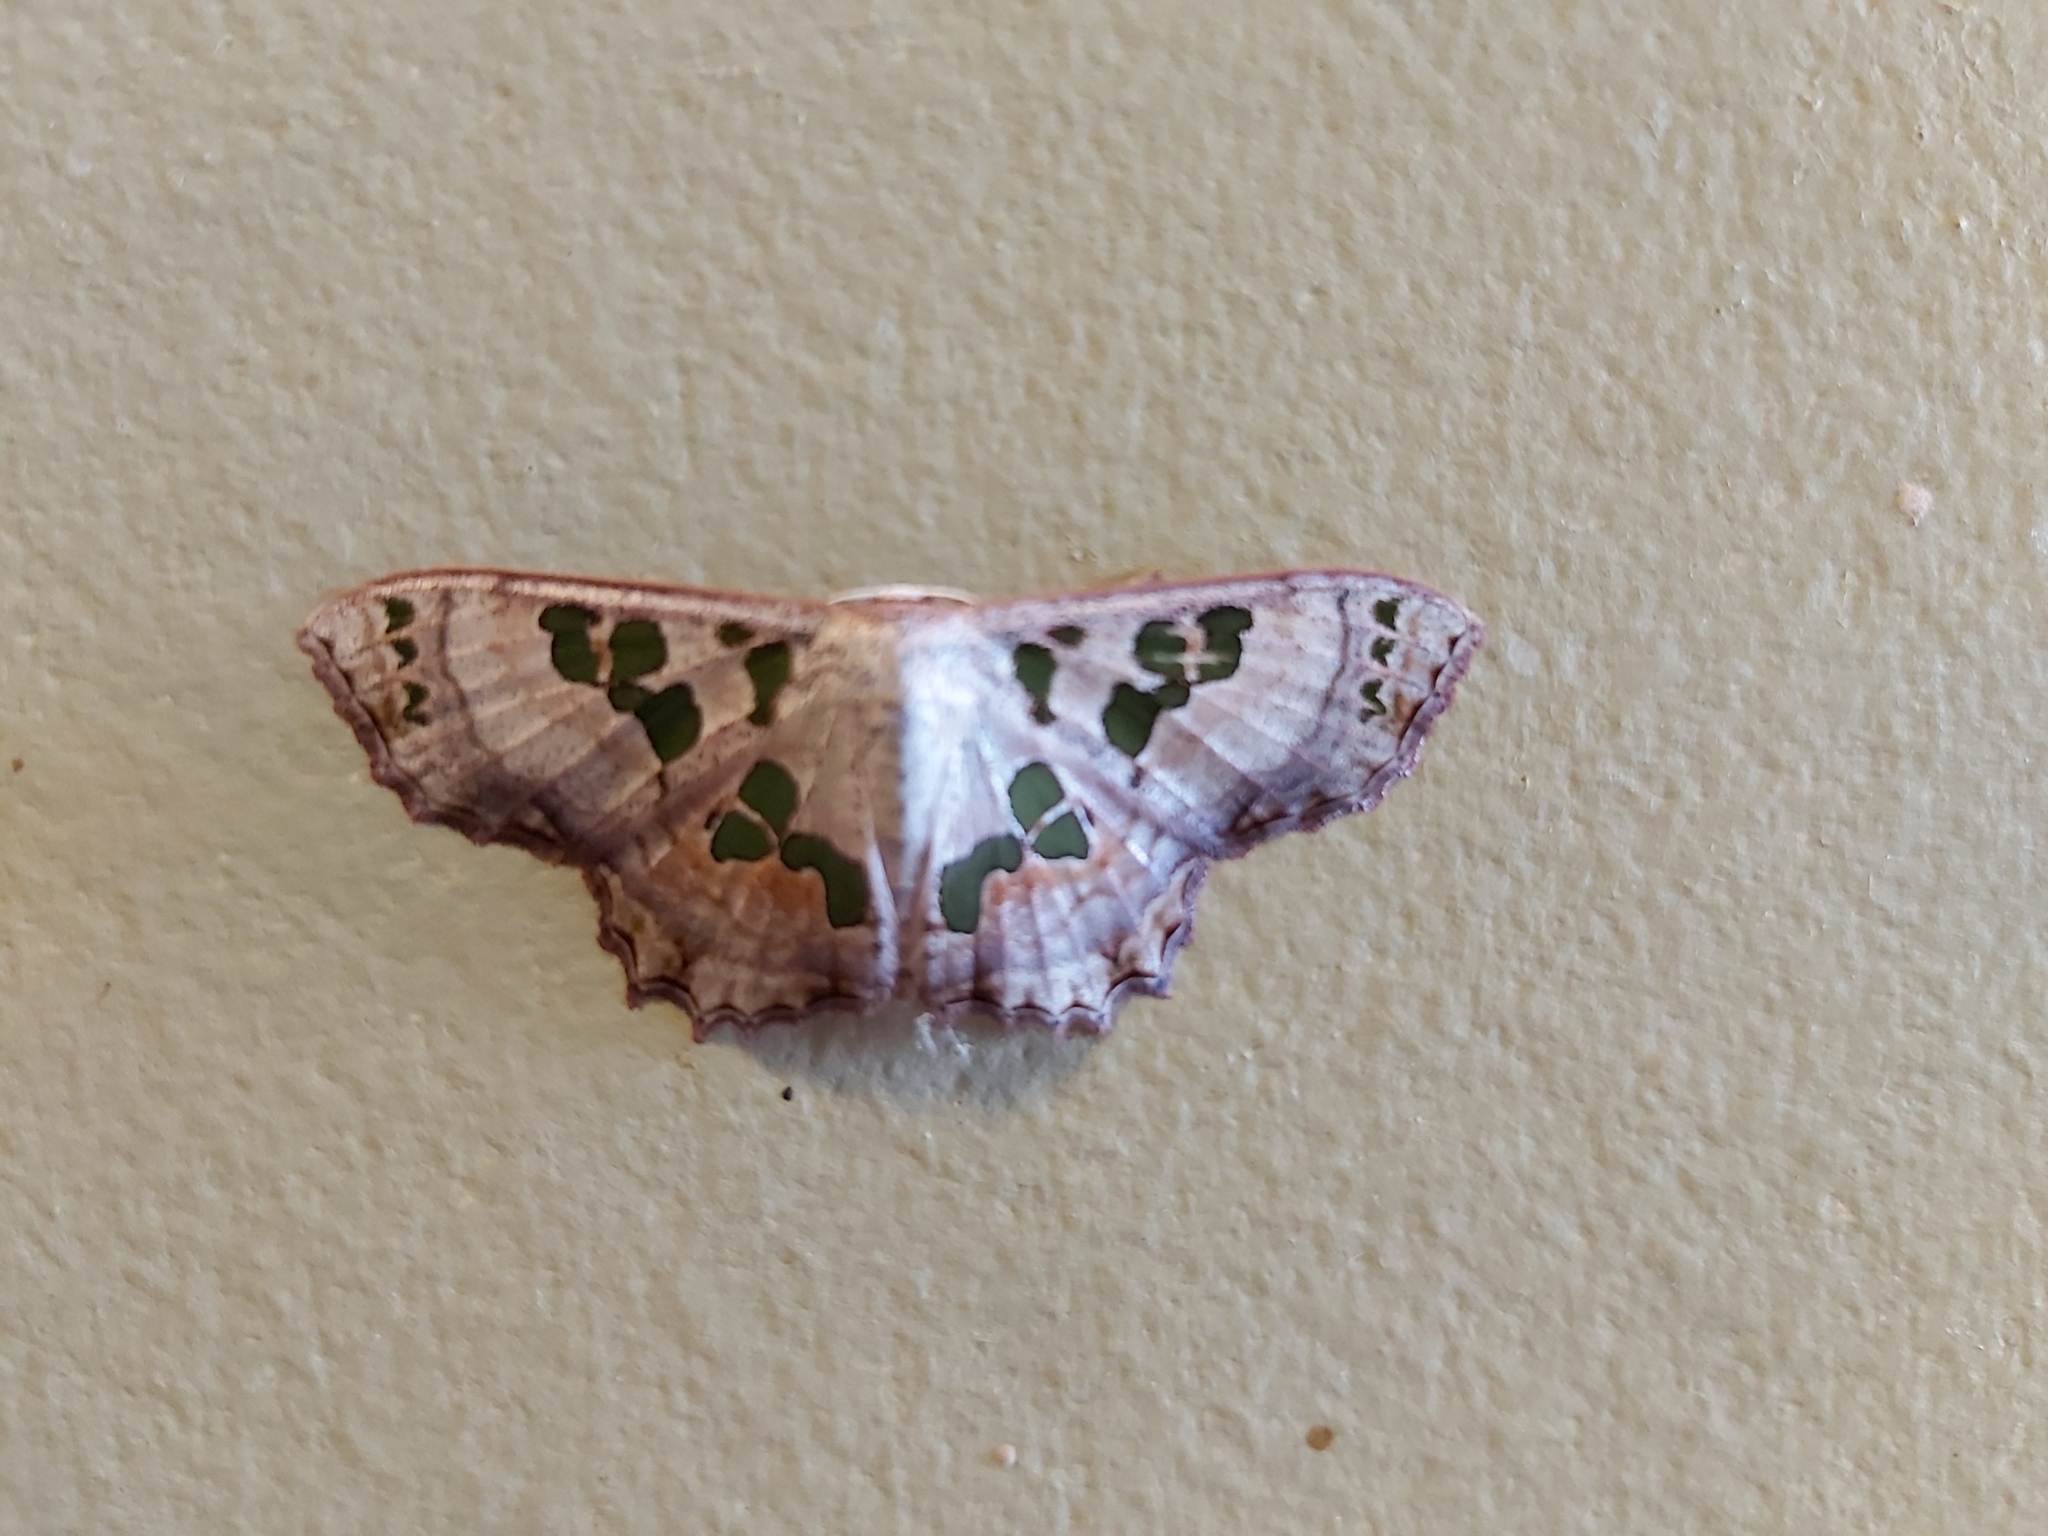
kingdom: Animalia
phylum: Arthropoda
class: Insecta
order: Lepidoptera
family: Geometridae
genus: Scopula
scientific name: Scopula parvimacula
